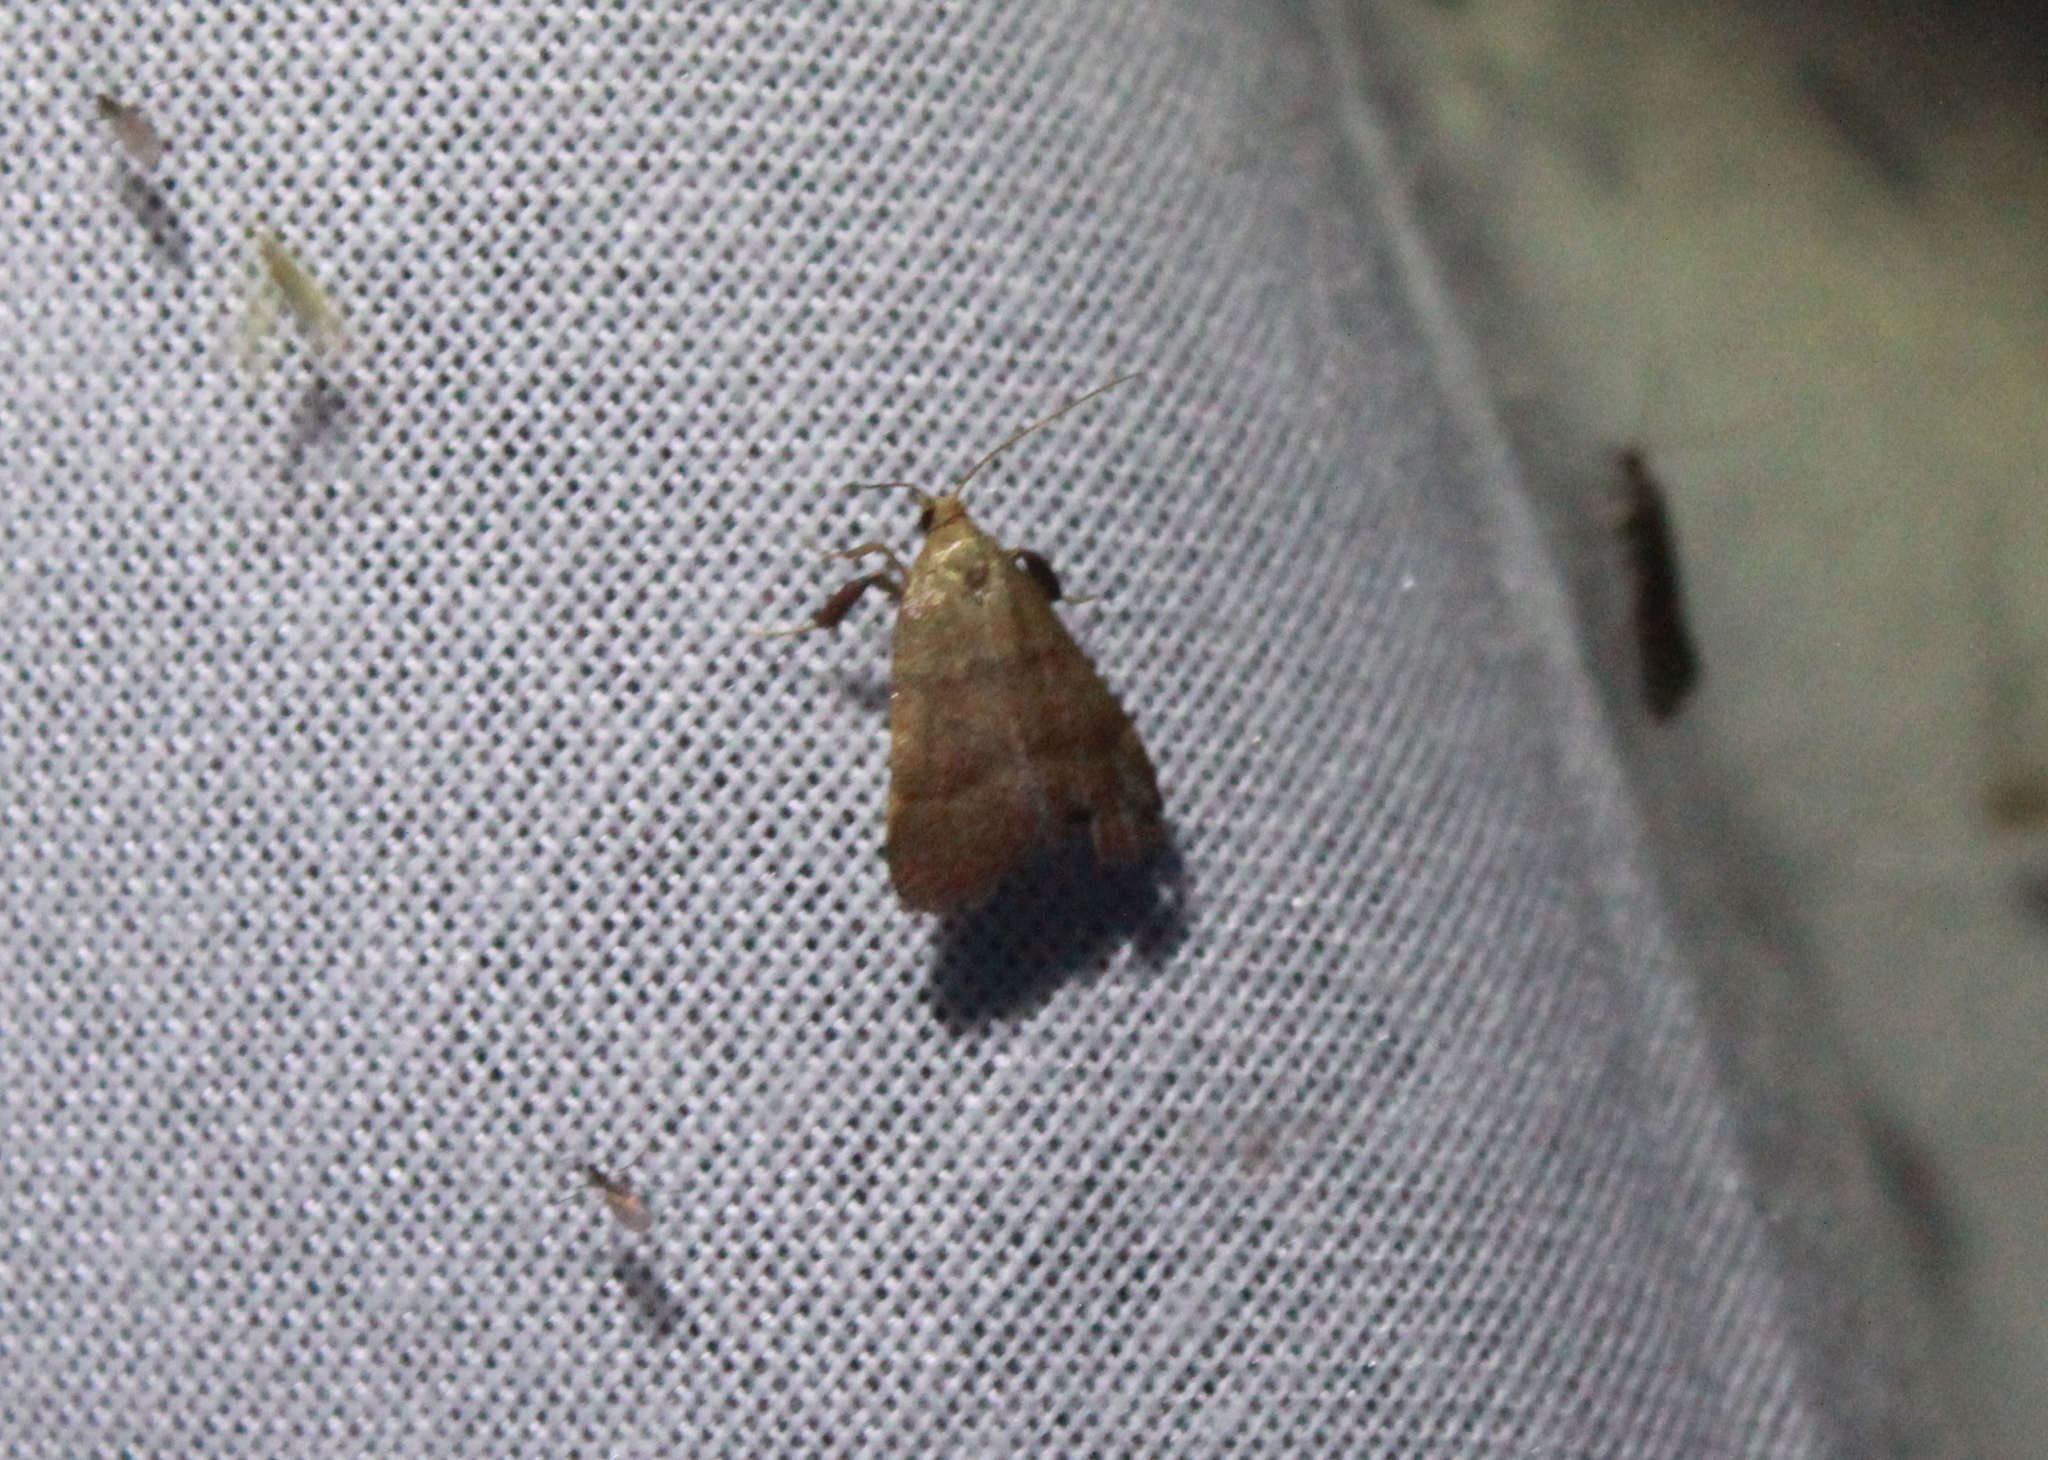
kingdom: Animalia
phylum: Arthropoda
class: Insecta
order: Lepidoptera
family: Pyralidae
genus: Condylolomia
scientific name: Condylolomia participialis
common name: Drab condylolomia moth
